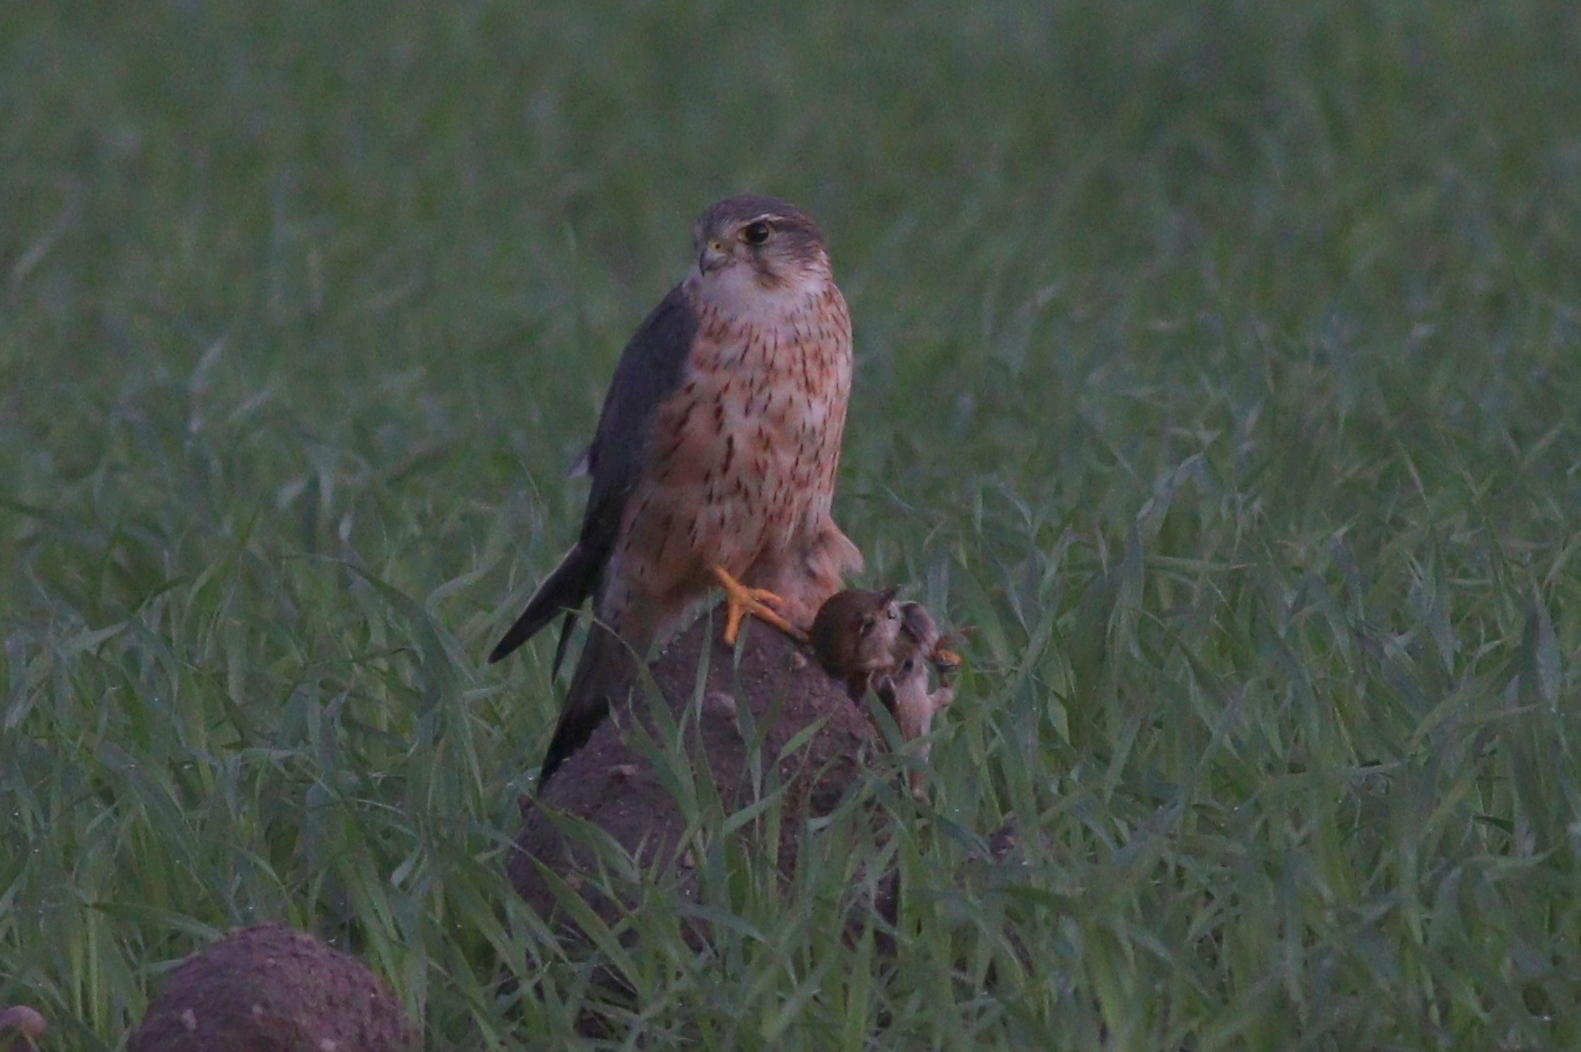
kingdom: Animalia
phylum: Chordata
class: Aves
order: Falconiformes
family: Falconidae
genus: Falco
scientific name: Falco columbarius
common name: Merlin
